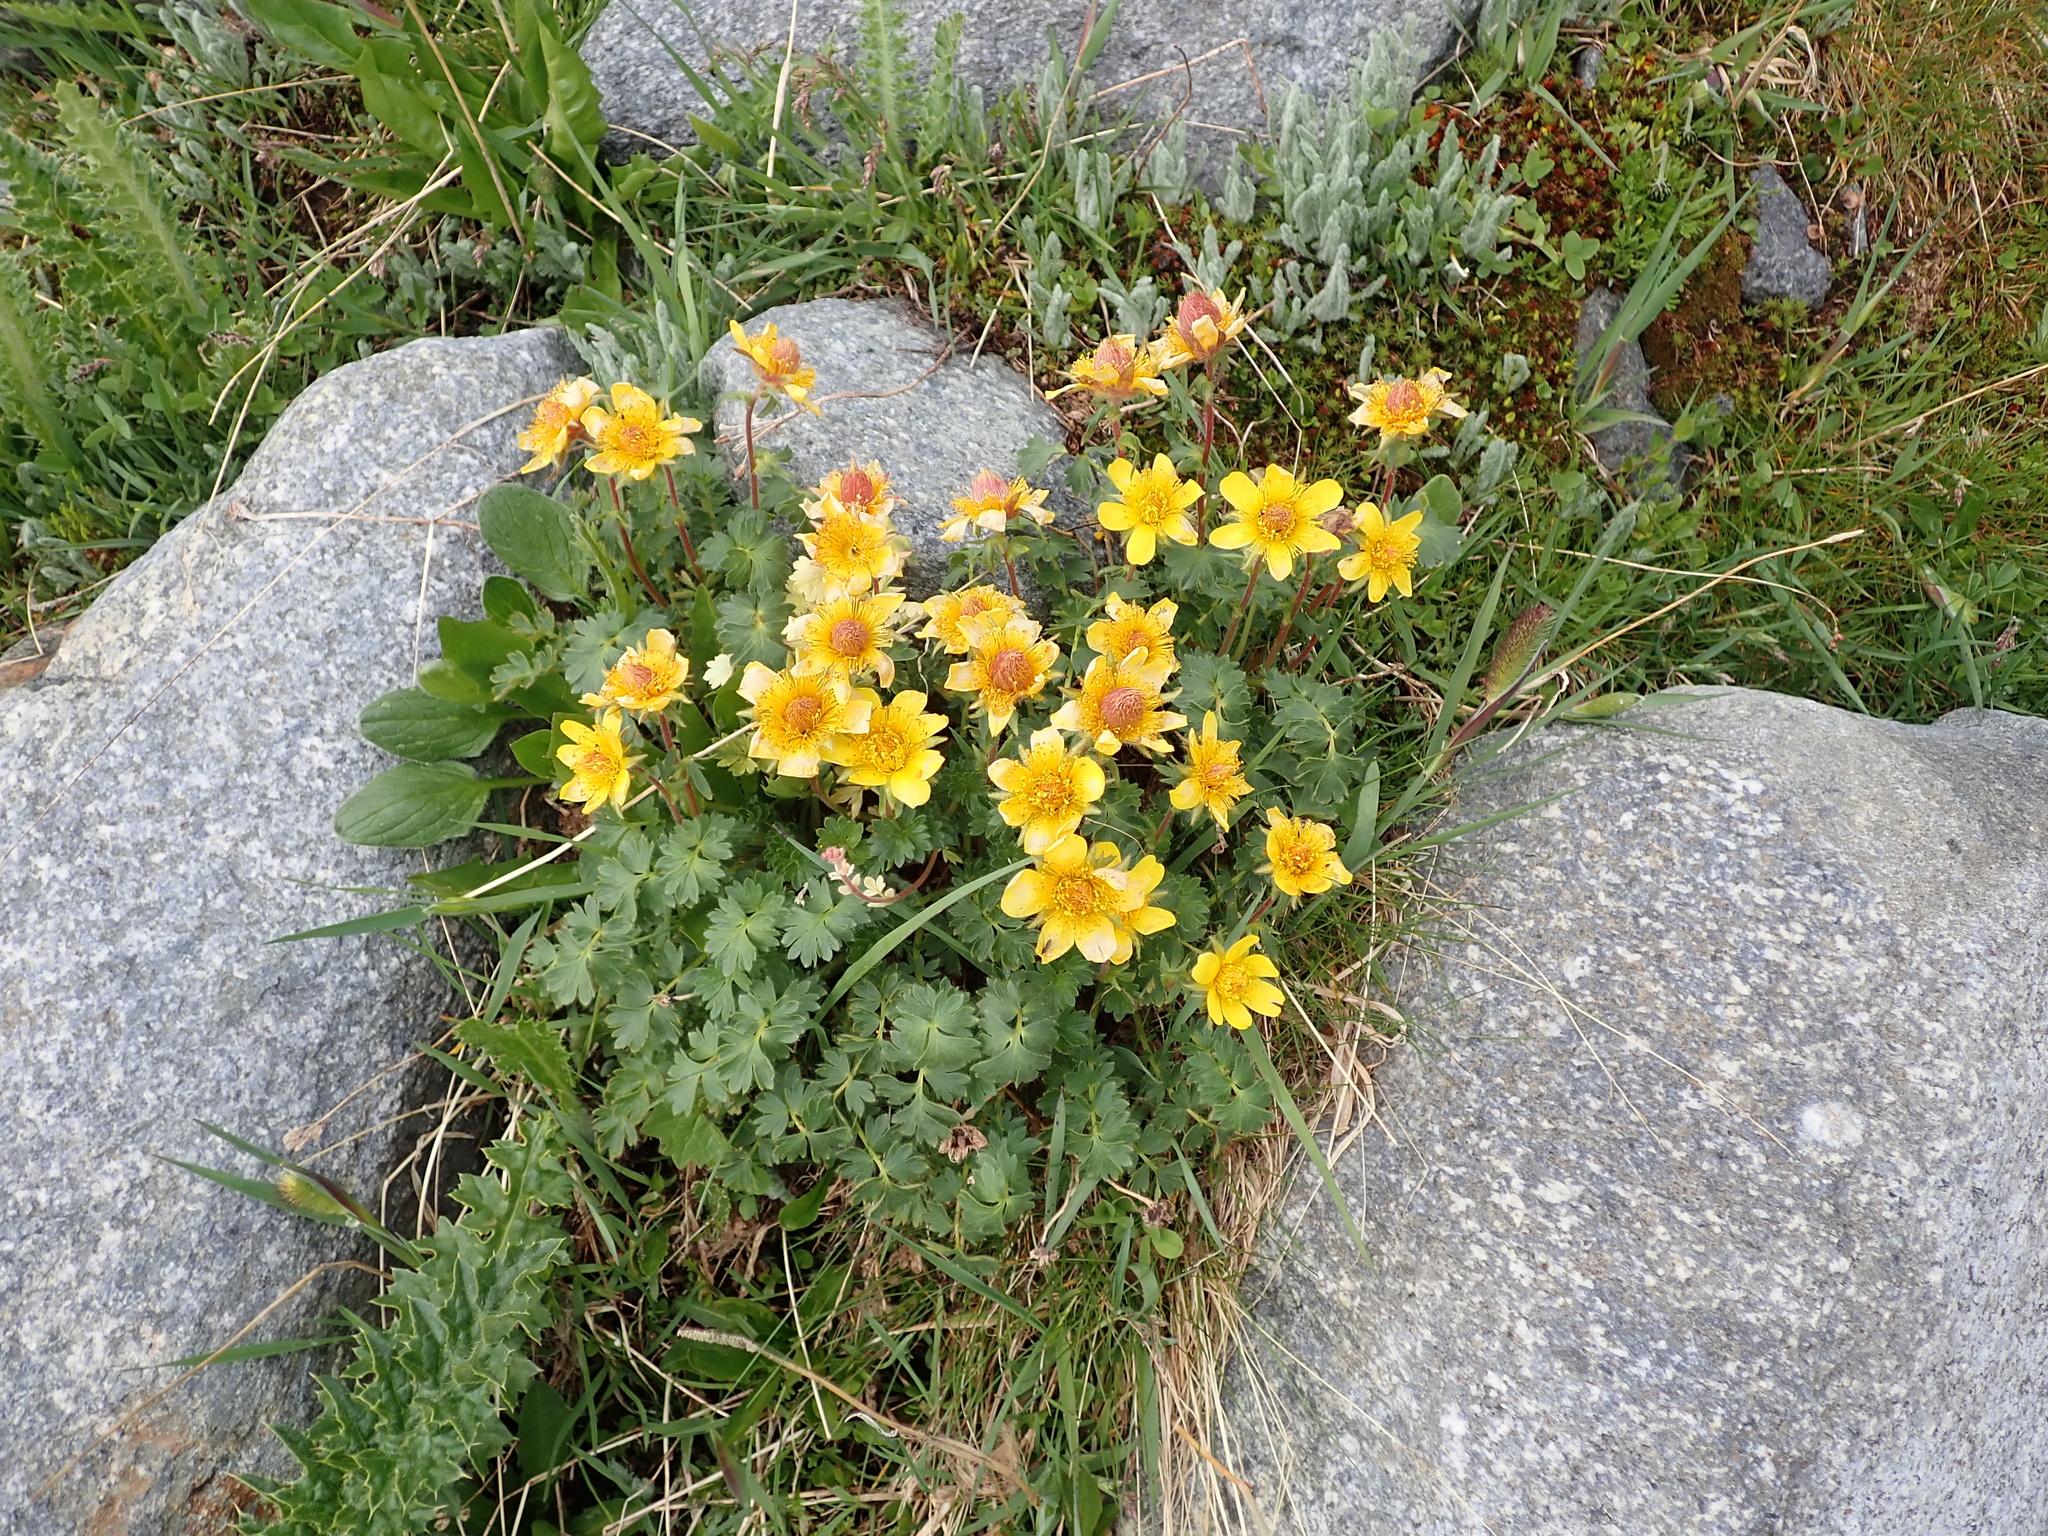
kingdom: Plantae
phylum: Tracheophyta
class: Magnoliopsida
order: Rosales
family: Rosaceae
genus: Geum
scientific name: Geum montanum
